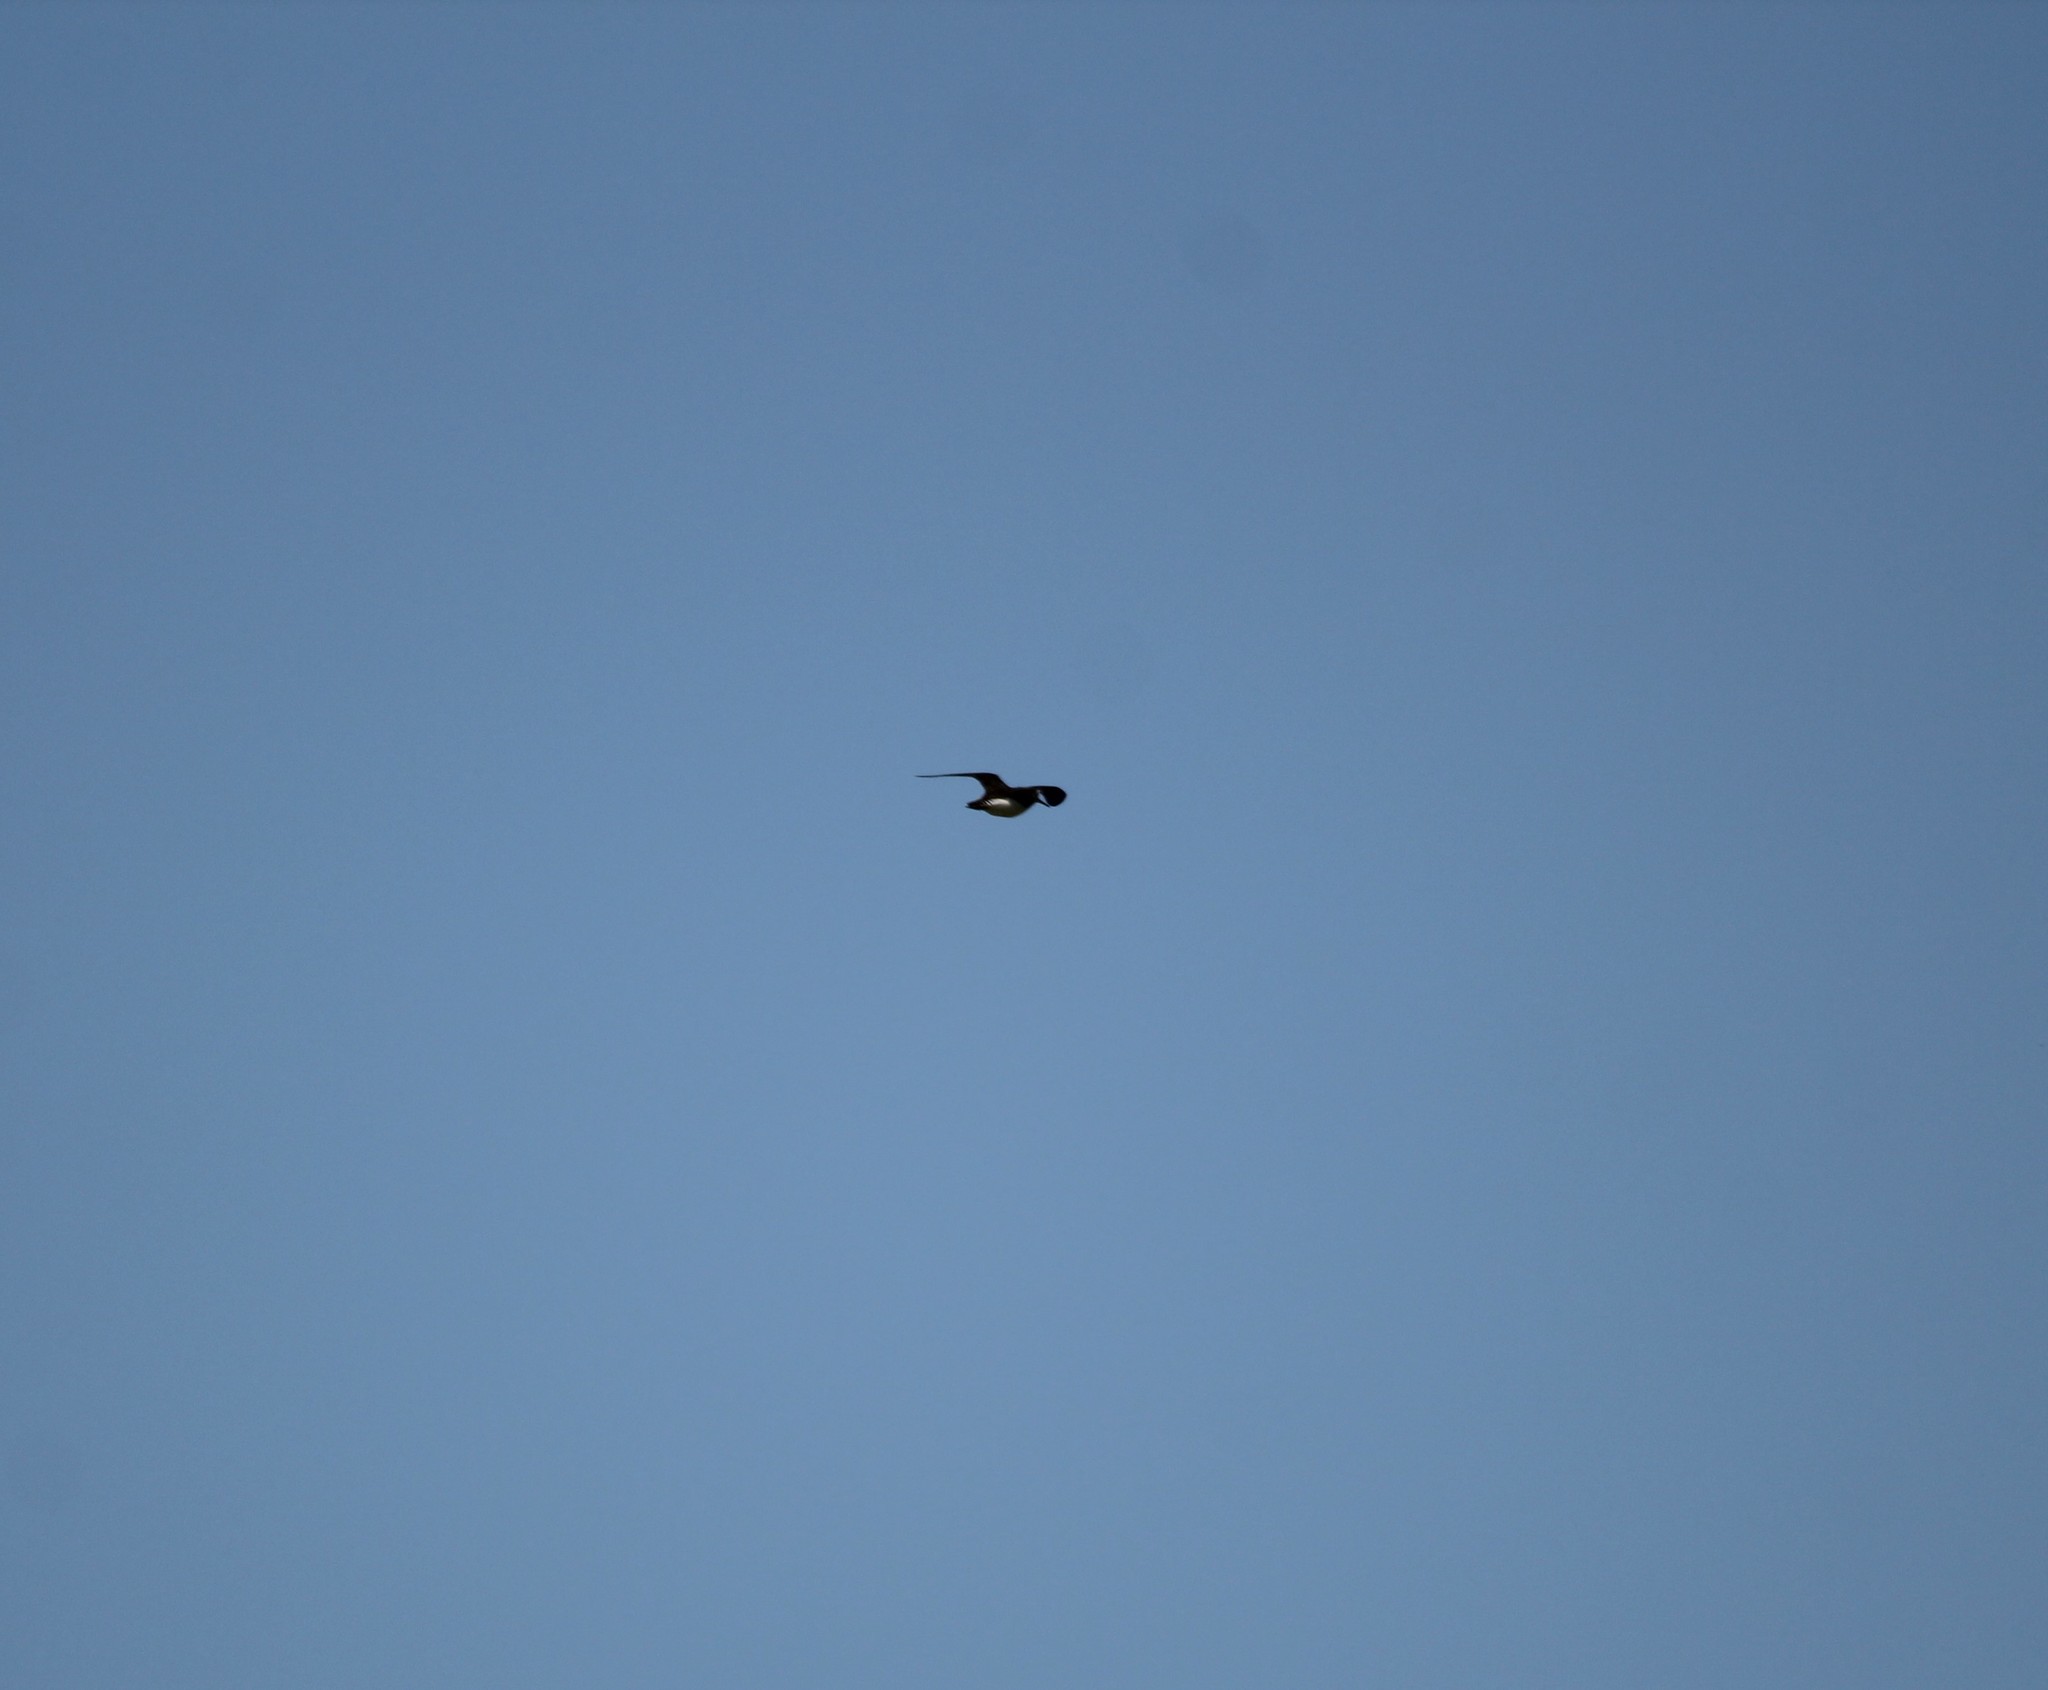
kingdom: Animalia
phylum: Chordata
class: Aves
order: Charadriiformes
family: Scolopacidae
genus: Gallinago
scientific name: Gallinago delicata
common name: Wilson's snipe
